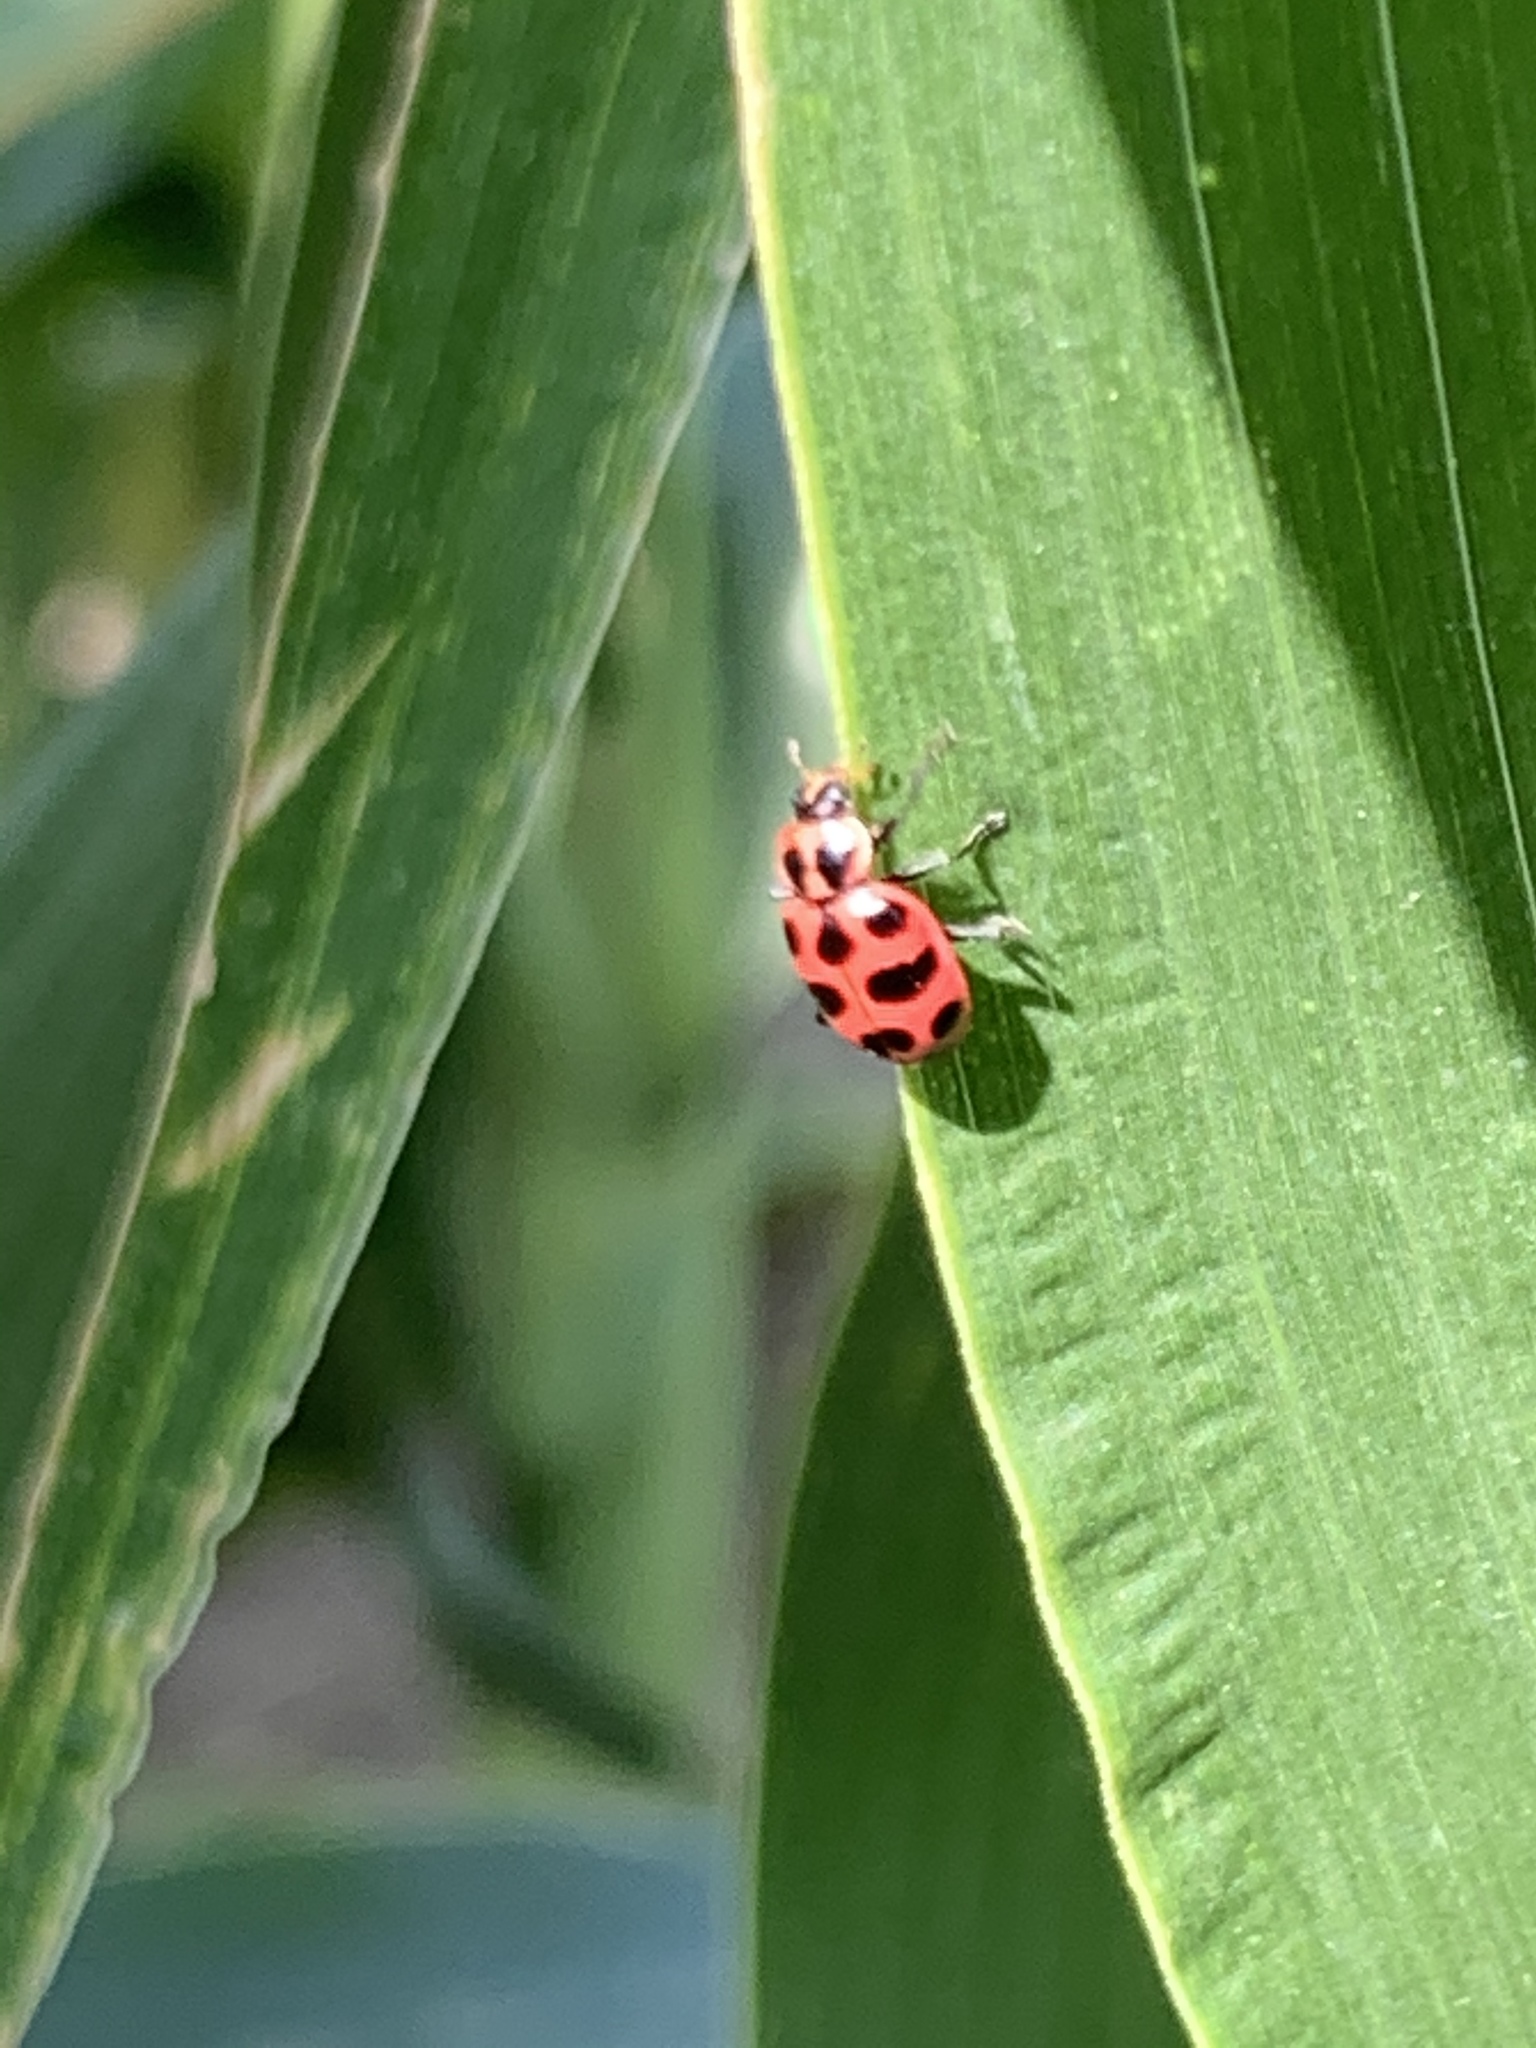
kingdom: Animalia
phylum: Arthropoda
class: Insecta
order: Coleoptera
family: Coccinellidae
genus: Coleomegilla
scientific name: Coleomegilla maculata
